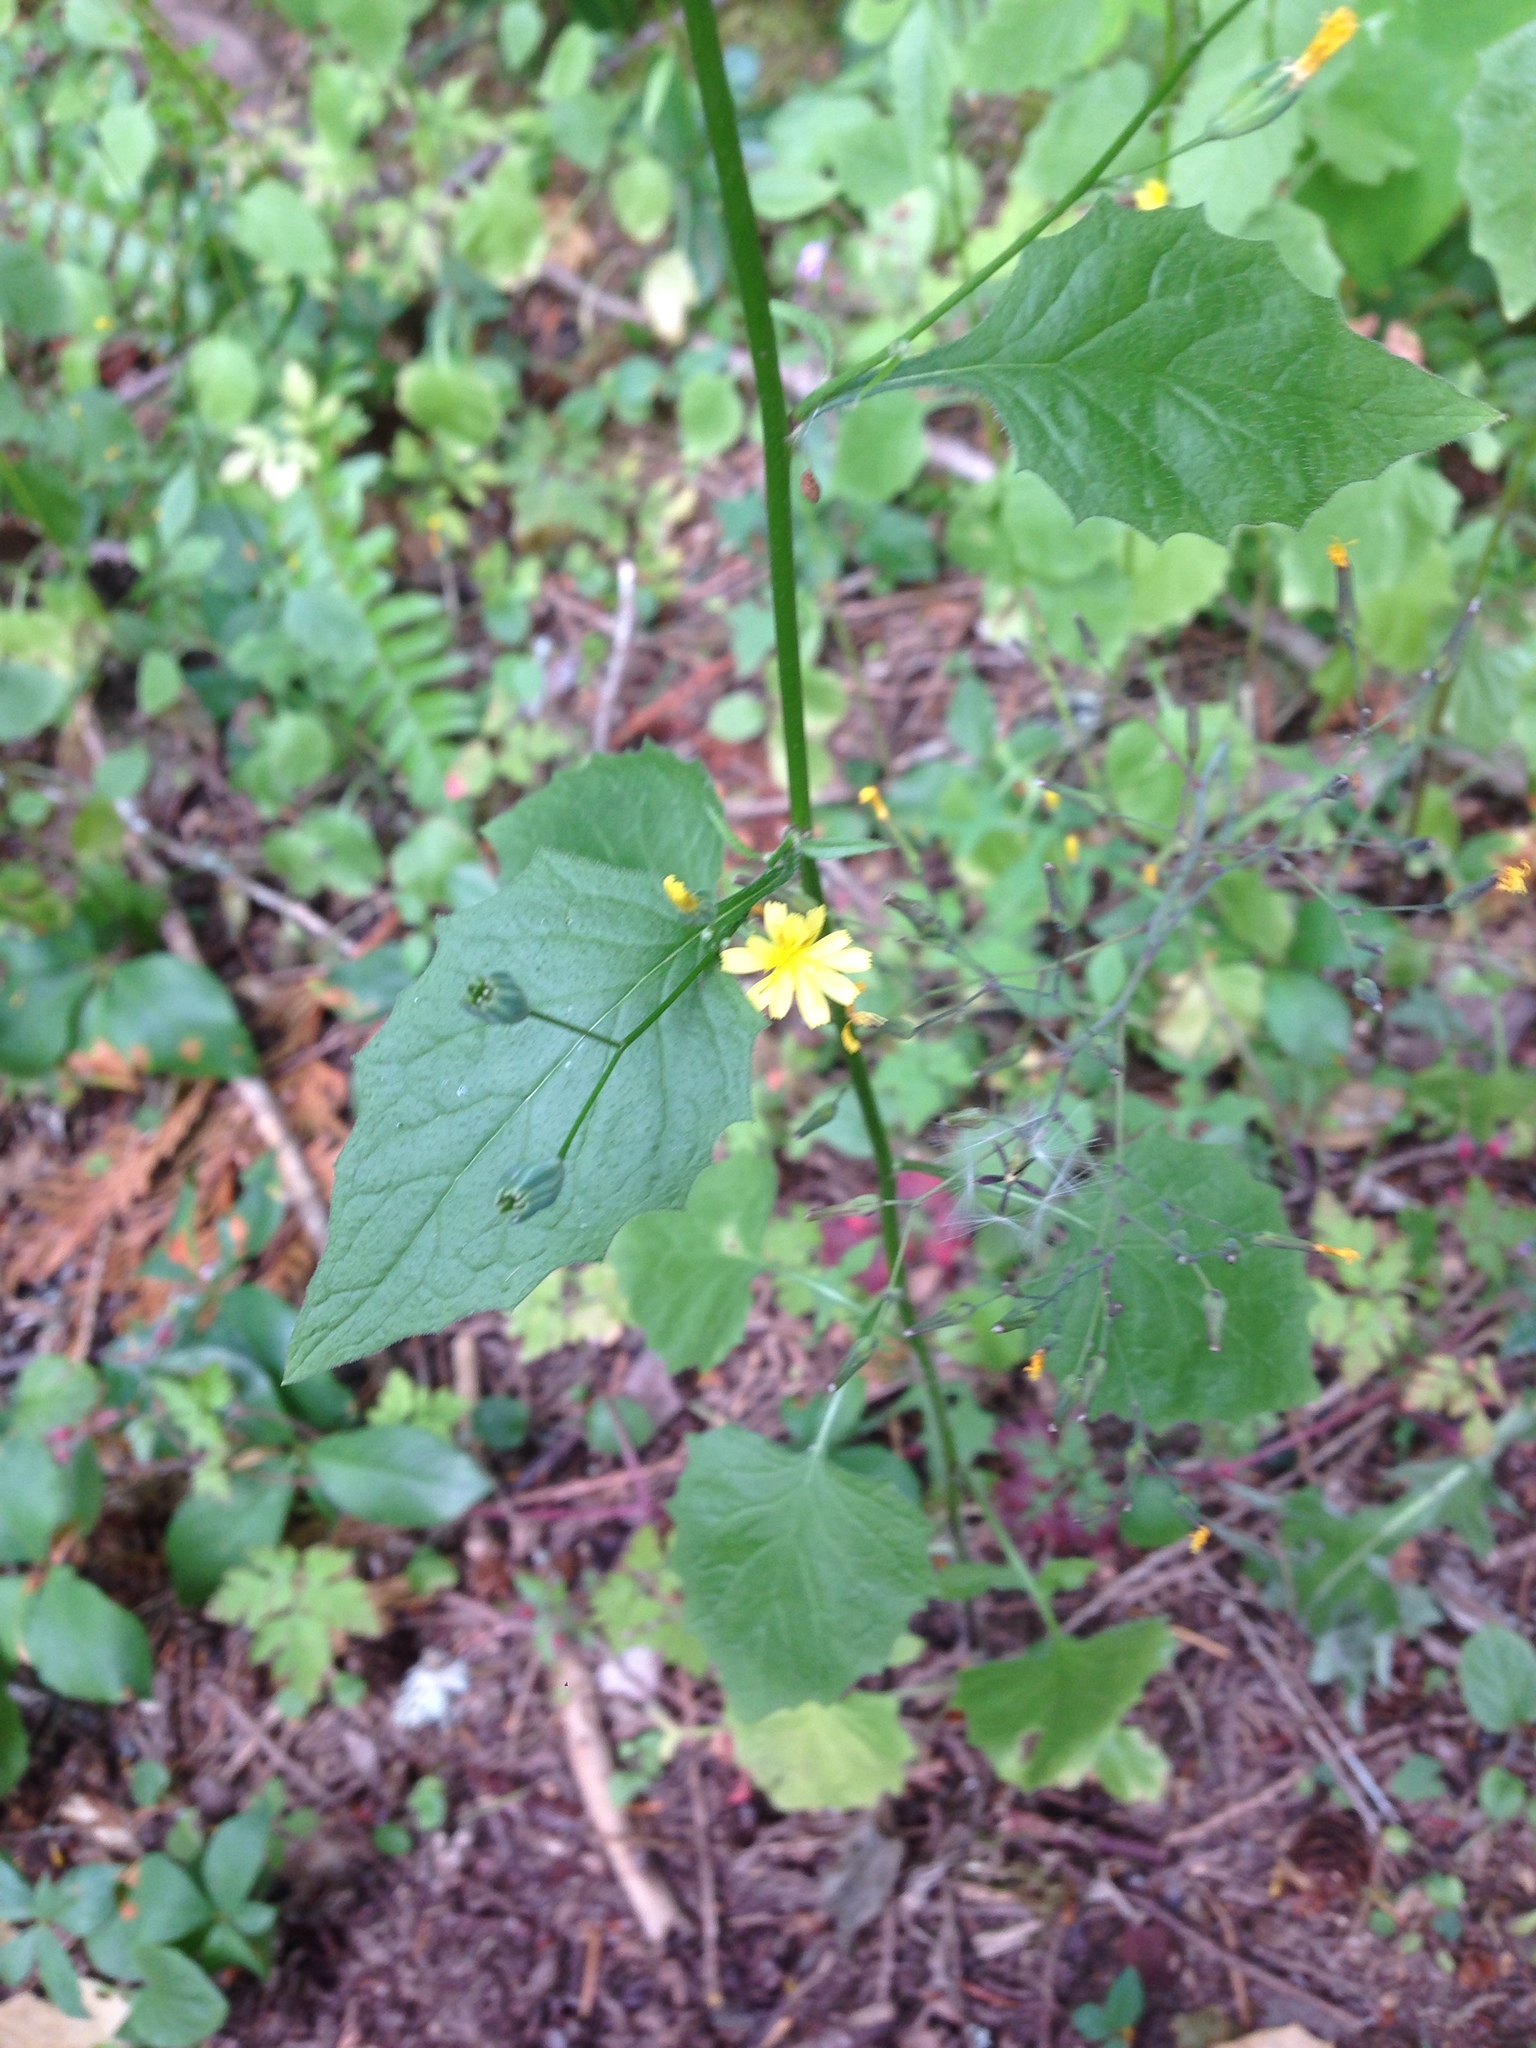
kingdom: Plantae
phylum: Tracheophyta
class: Magnoliopsida
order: Asterales
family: Asteraceae
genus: Lapsana
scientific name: Lapsana communis
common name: Nipplewort
